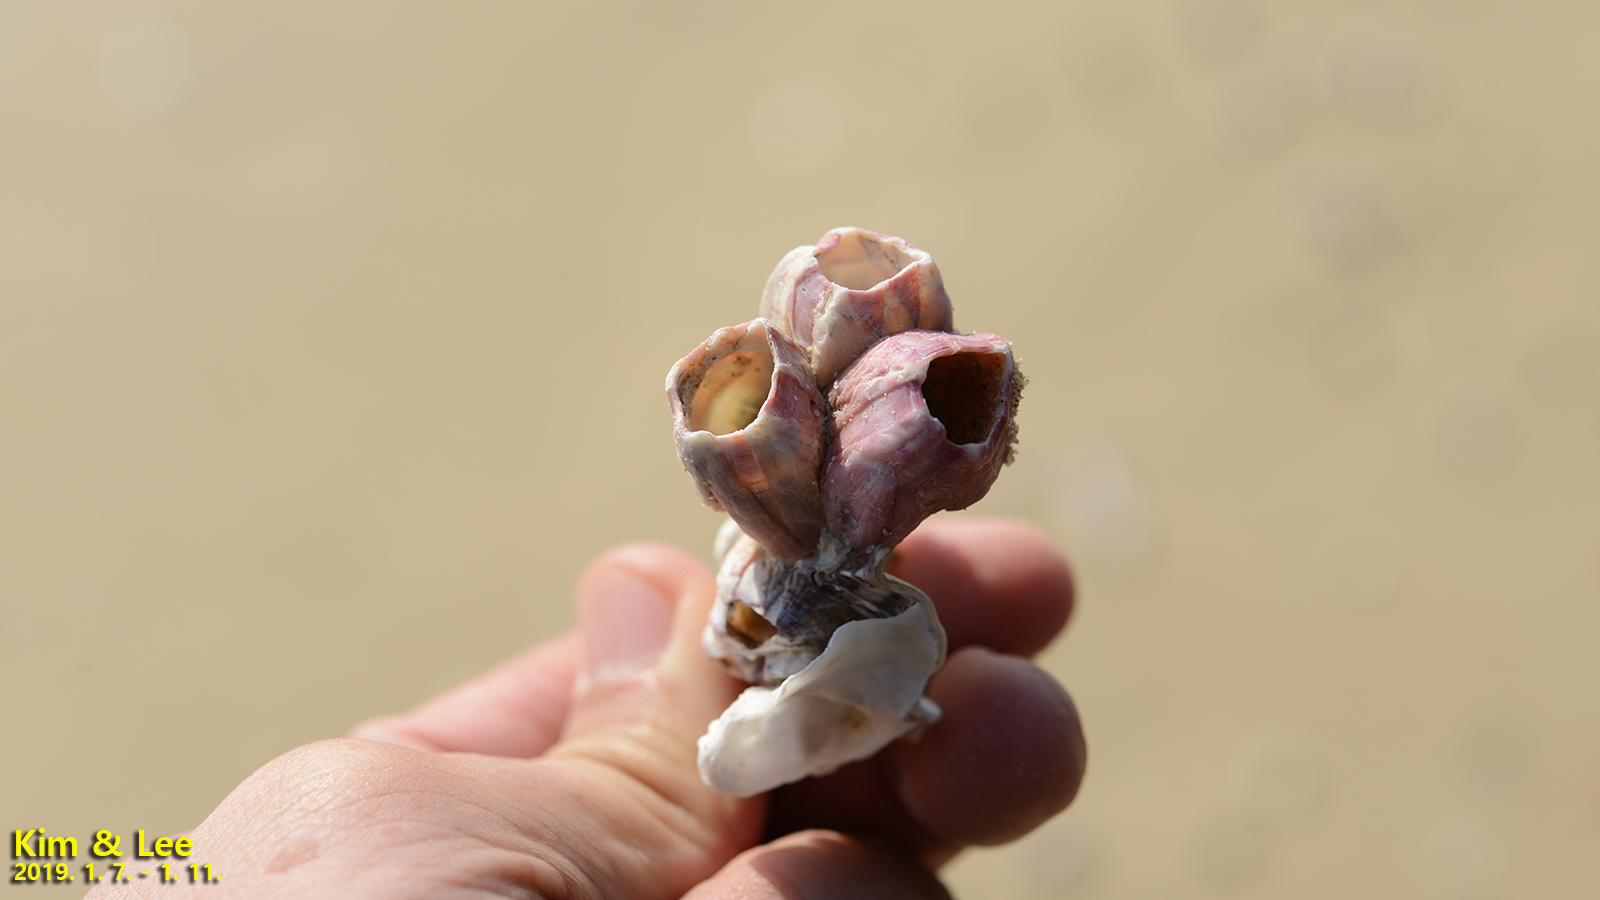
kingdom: Animalia
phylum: Arthropoda
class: Maxillopoda
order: Sessilia
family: Balanidae
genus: Megabalanus
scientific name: Megabalanus rosa
